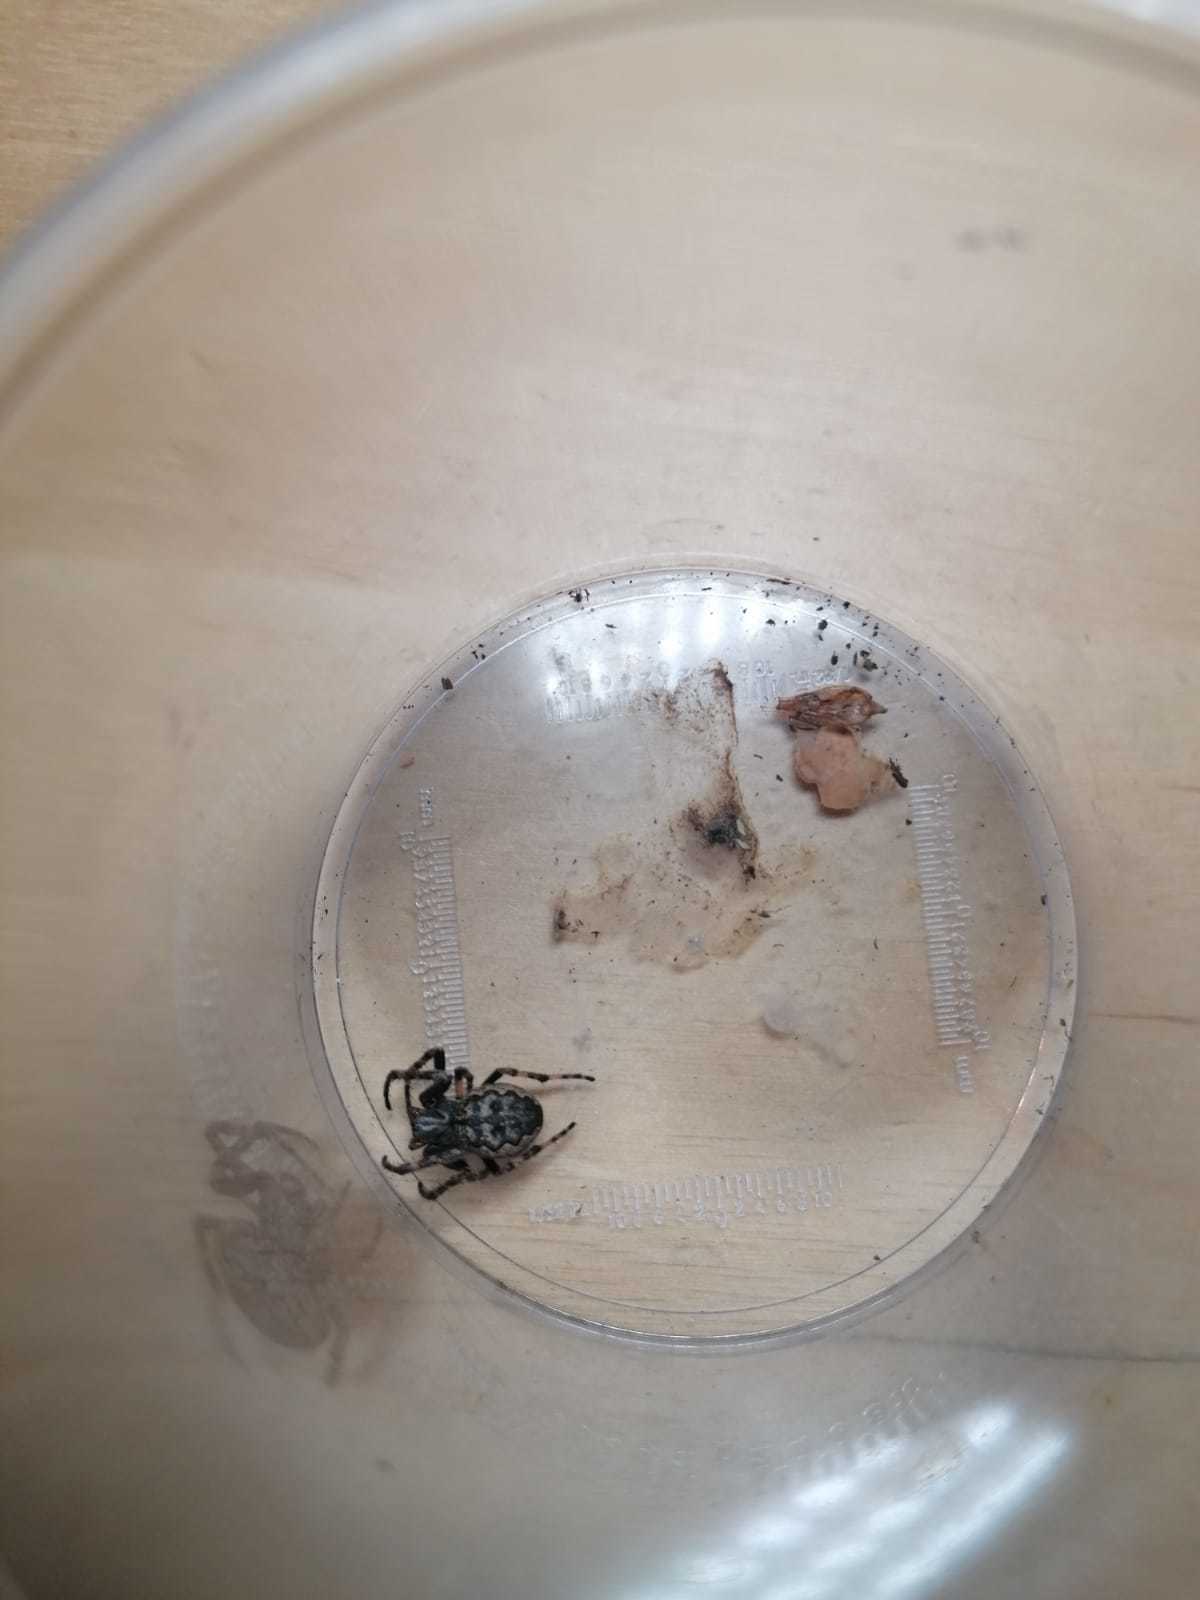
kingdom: Animalia
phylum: Arthropoda
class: Arachnida
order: Araneae
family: Araneidae
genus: Nuctenea
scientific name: Nuctenea umbratica
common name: Toad spider
